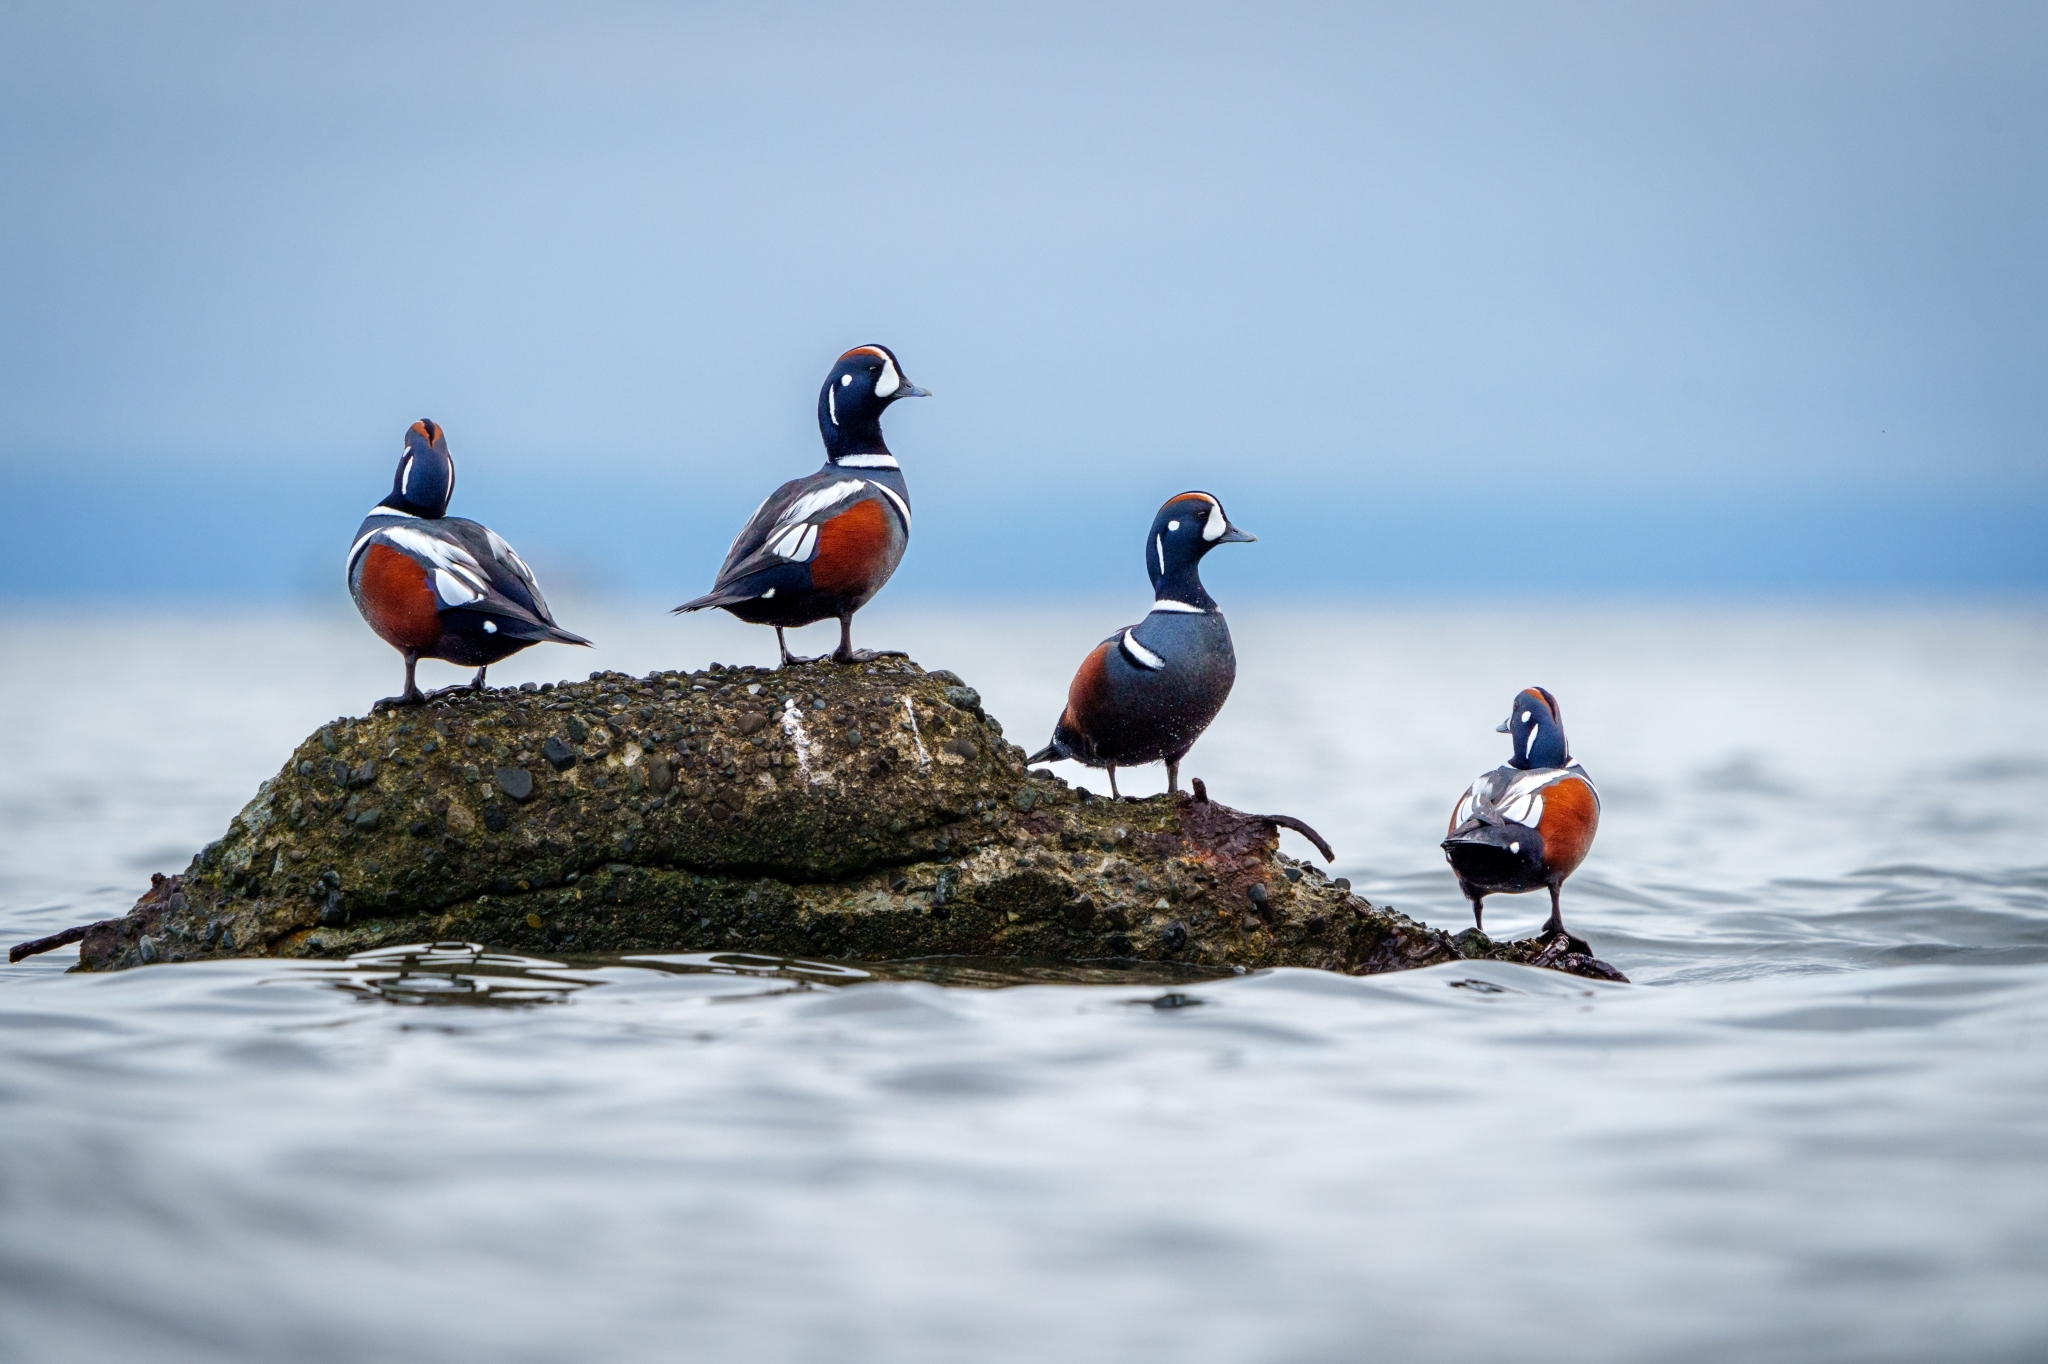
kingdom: Animalia
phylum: Chordata
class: Aves
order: Anseriformes
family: Anatidae
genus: Histrionicus
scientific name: Histrionicus histrionicus
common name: Harlequin duck
